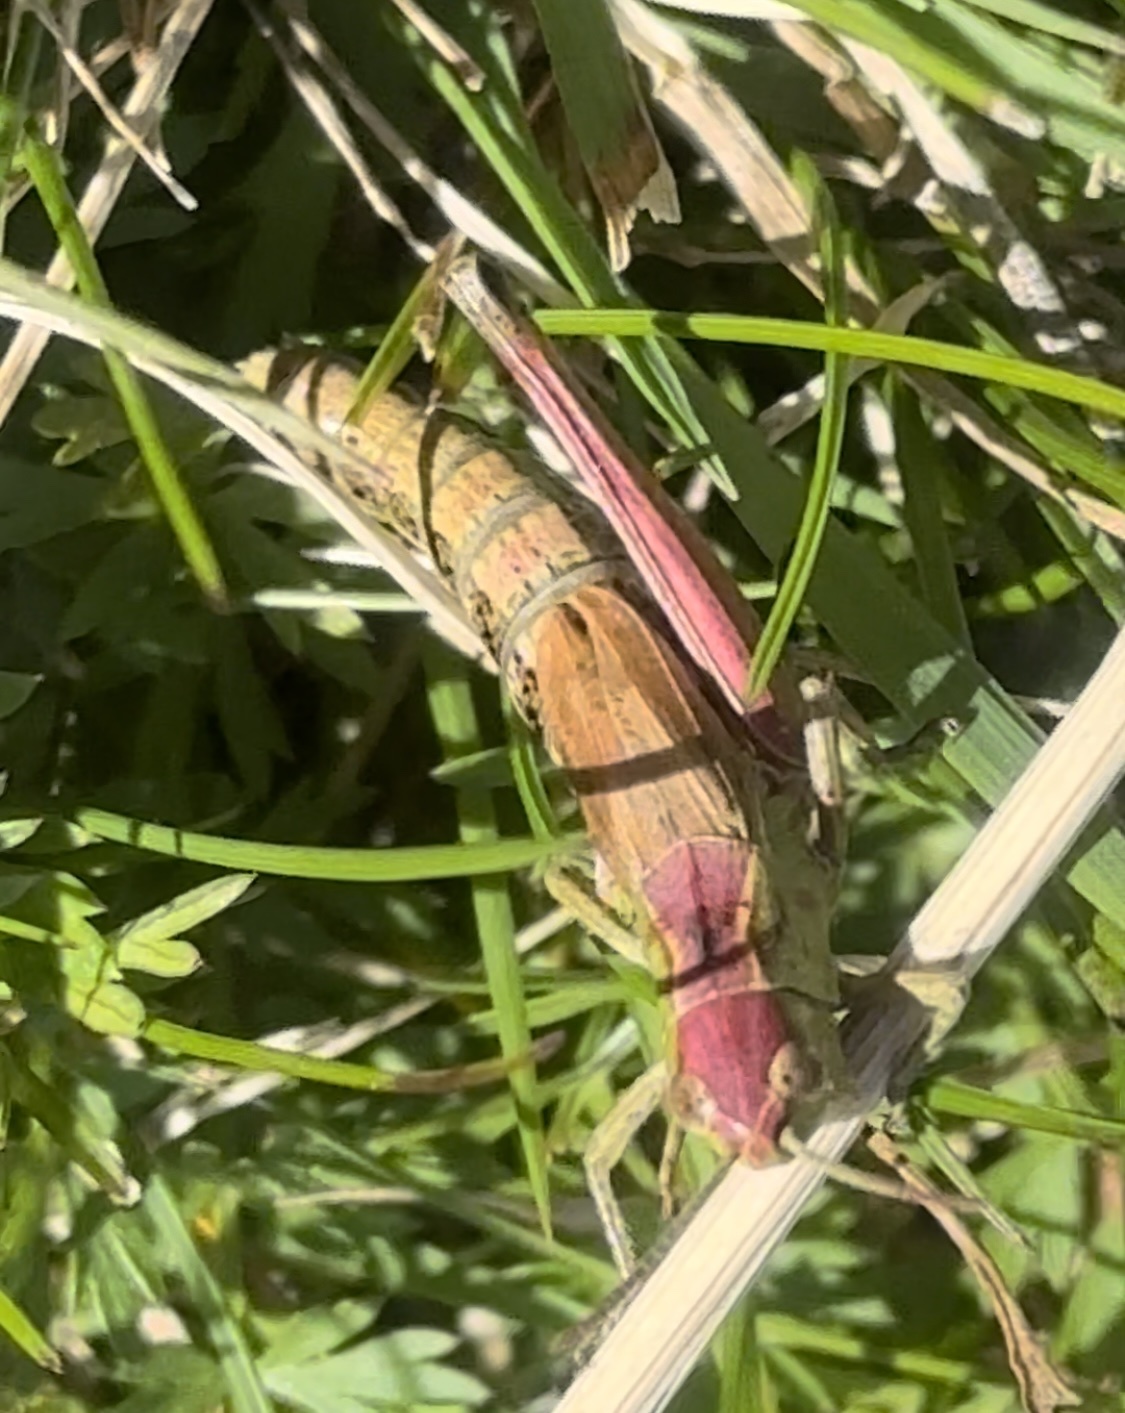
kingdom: Animalia
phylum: Arthropoda
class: Insecta
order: Orthoptera
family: Acrididae
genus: Pseudochorthippus
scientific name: Pseudochorthippus parallelus
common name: Meadow grasshopper
